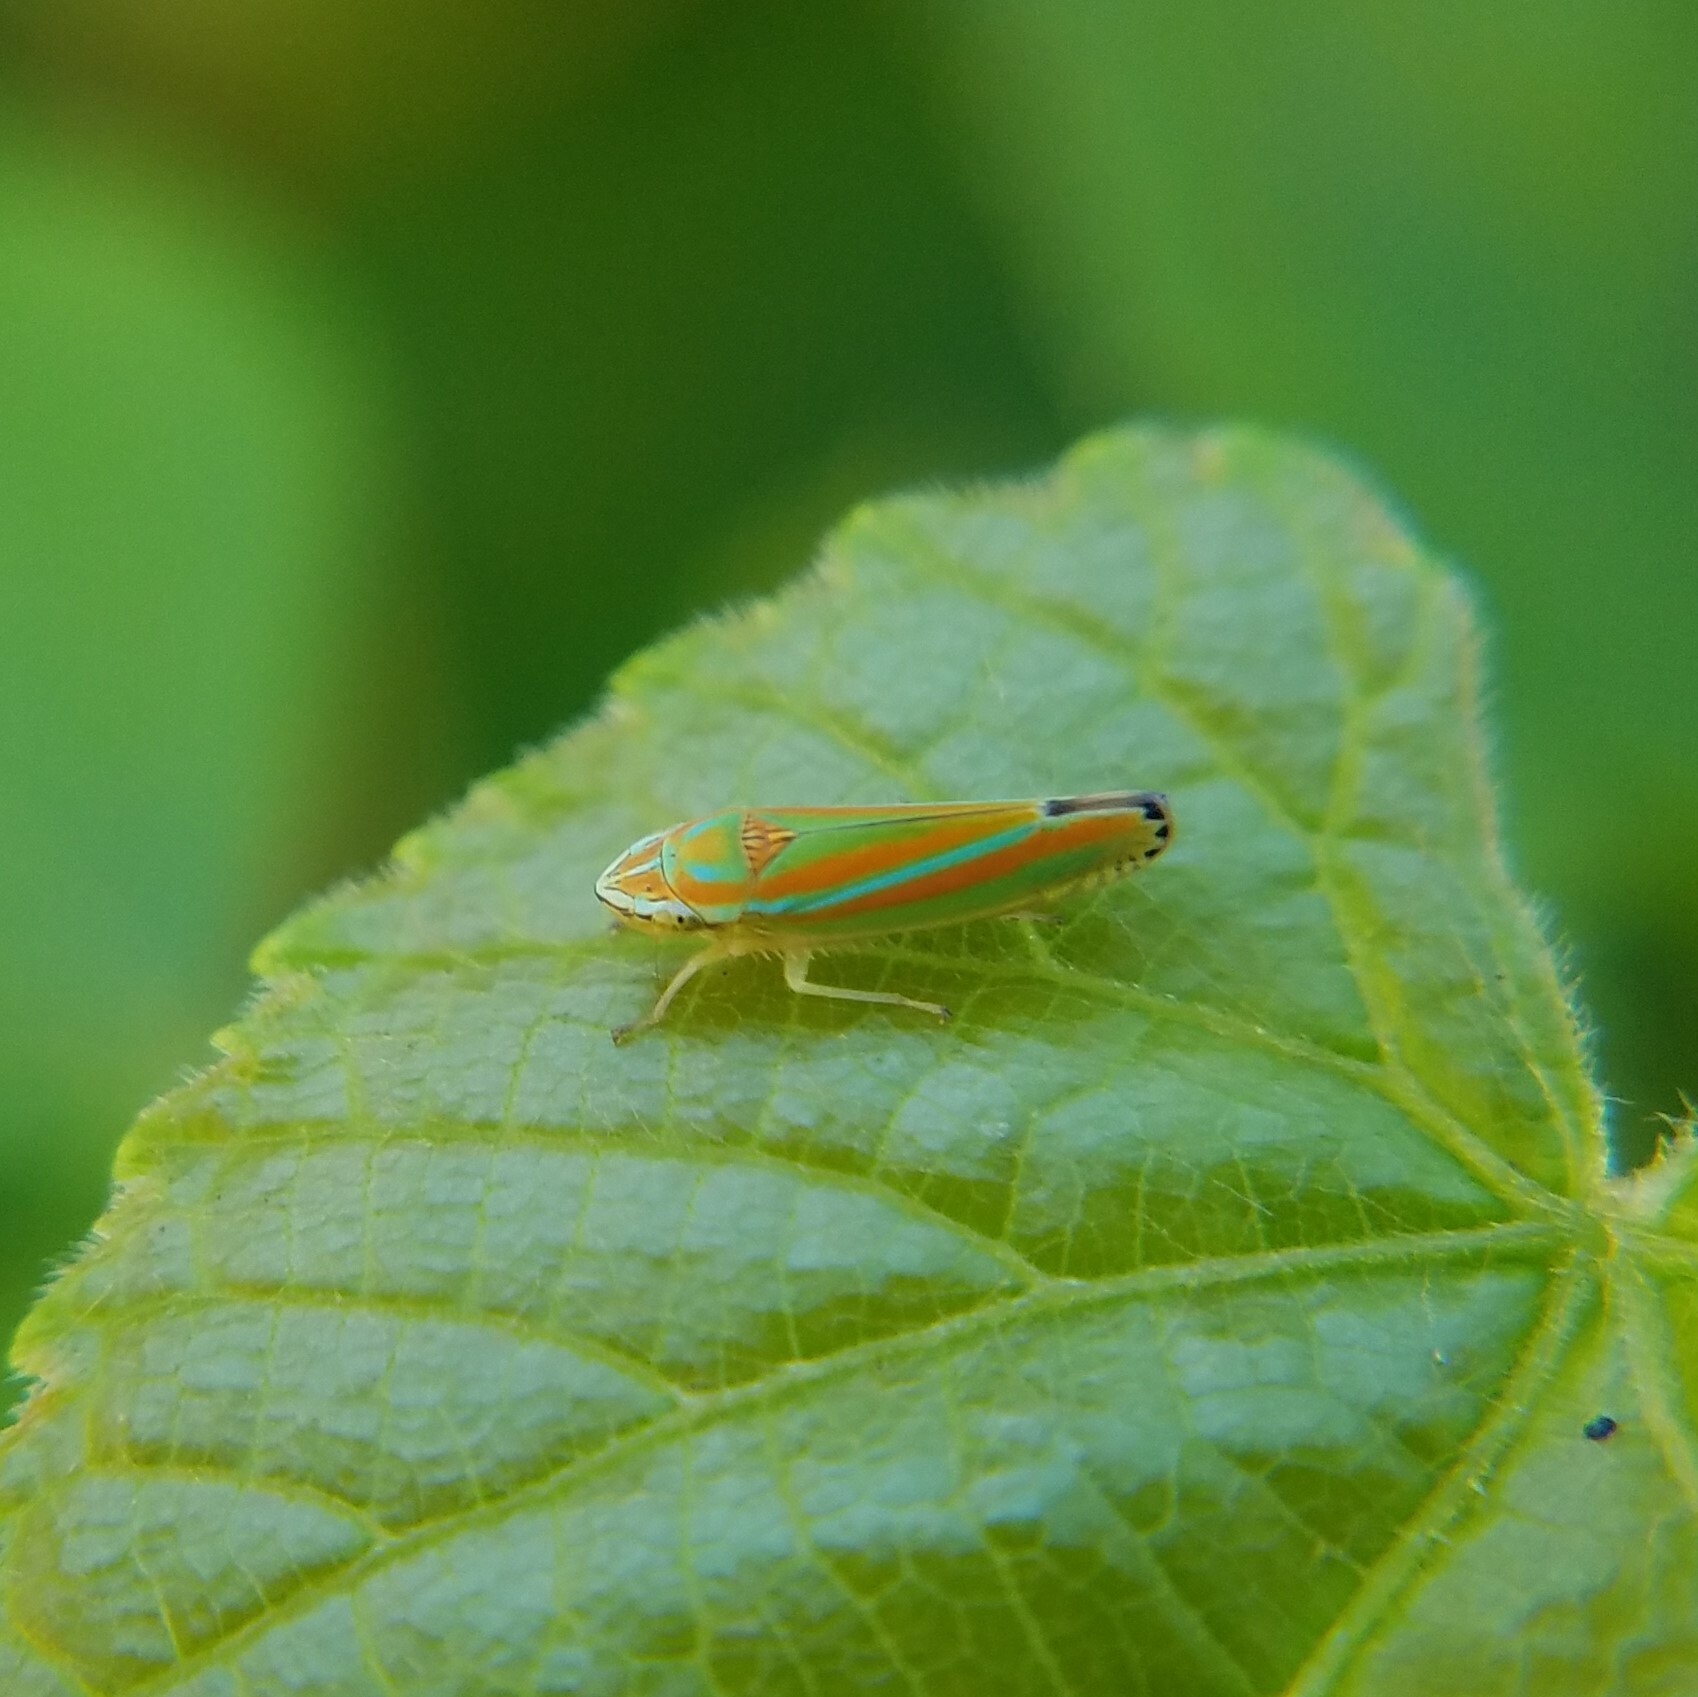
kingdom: Animalia
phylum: Arthropoda
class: Insecta
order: Hemiptera
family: Cicadellidae
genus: Graphocephala
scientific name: Graphocephala versuta
